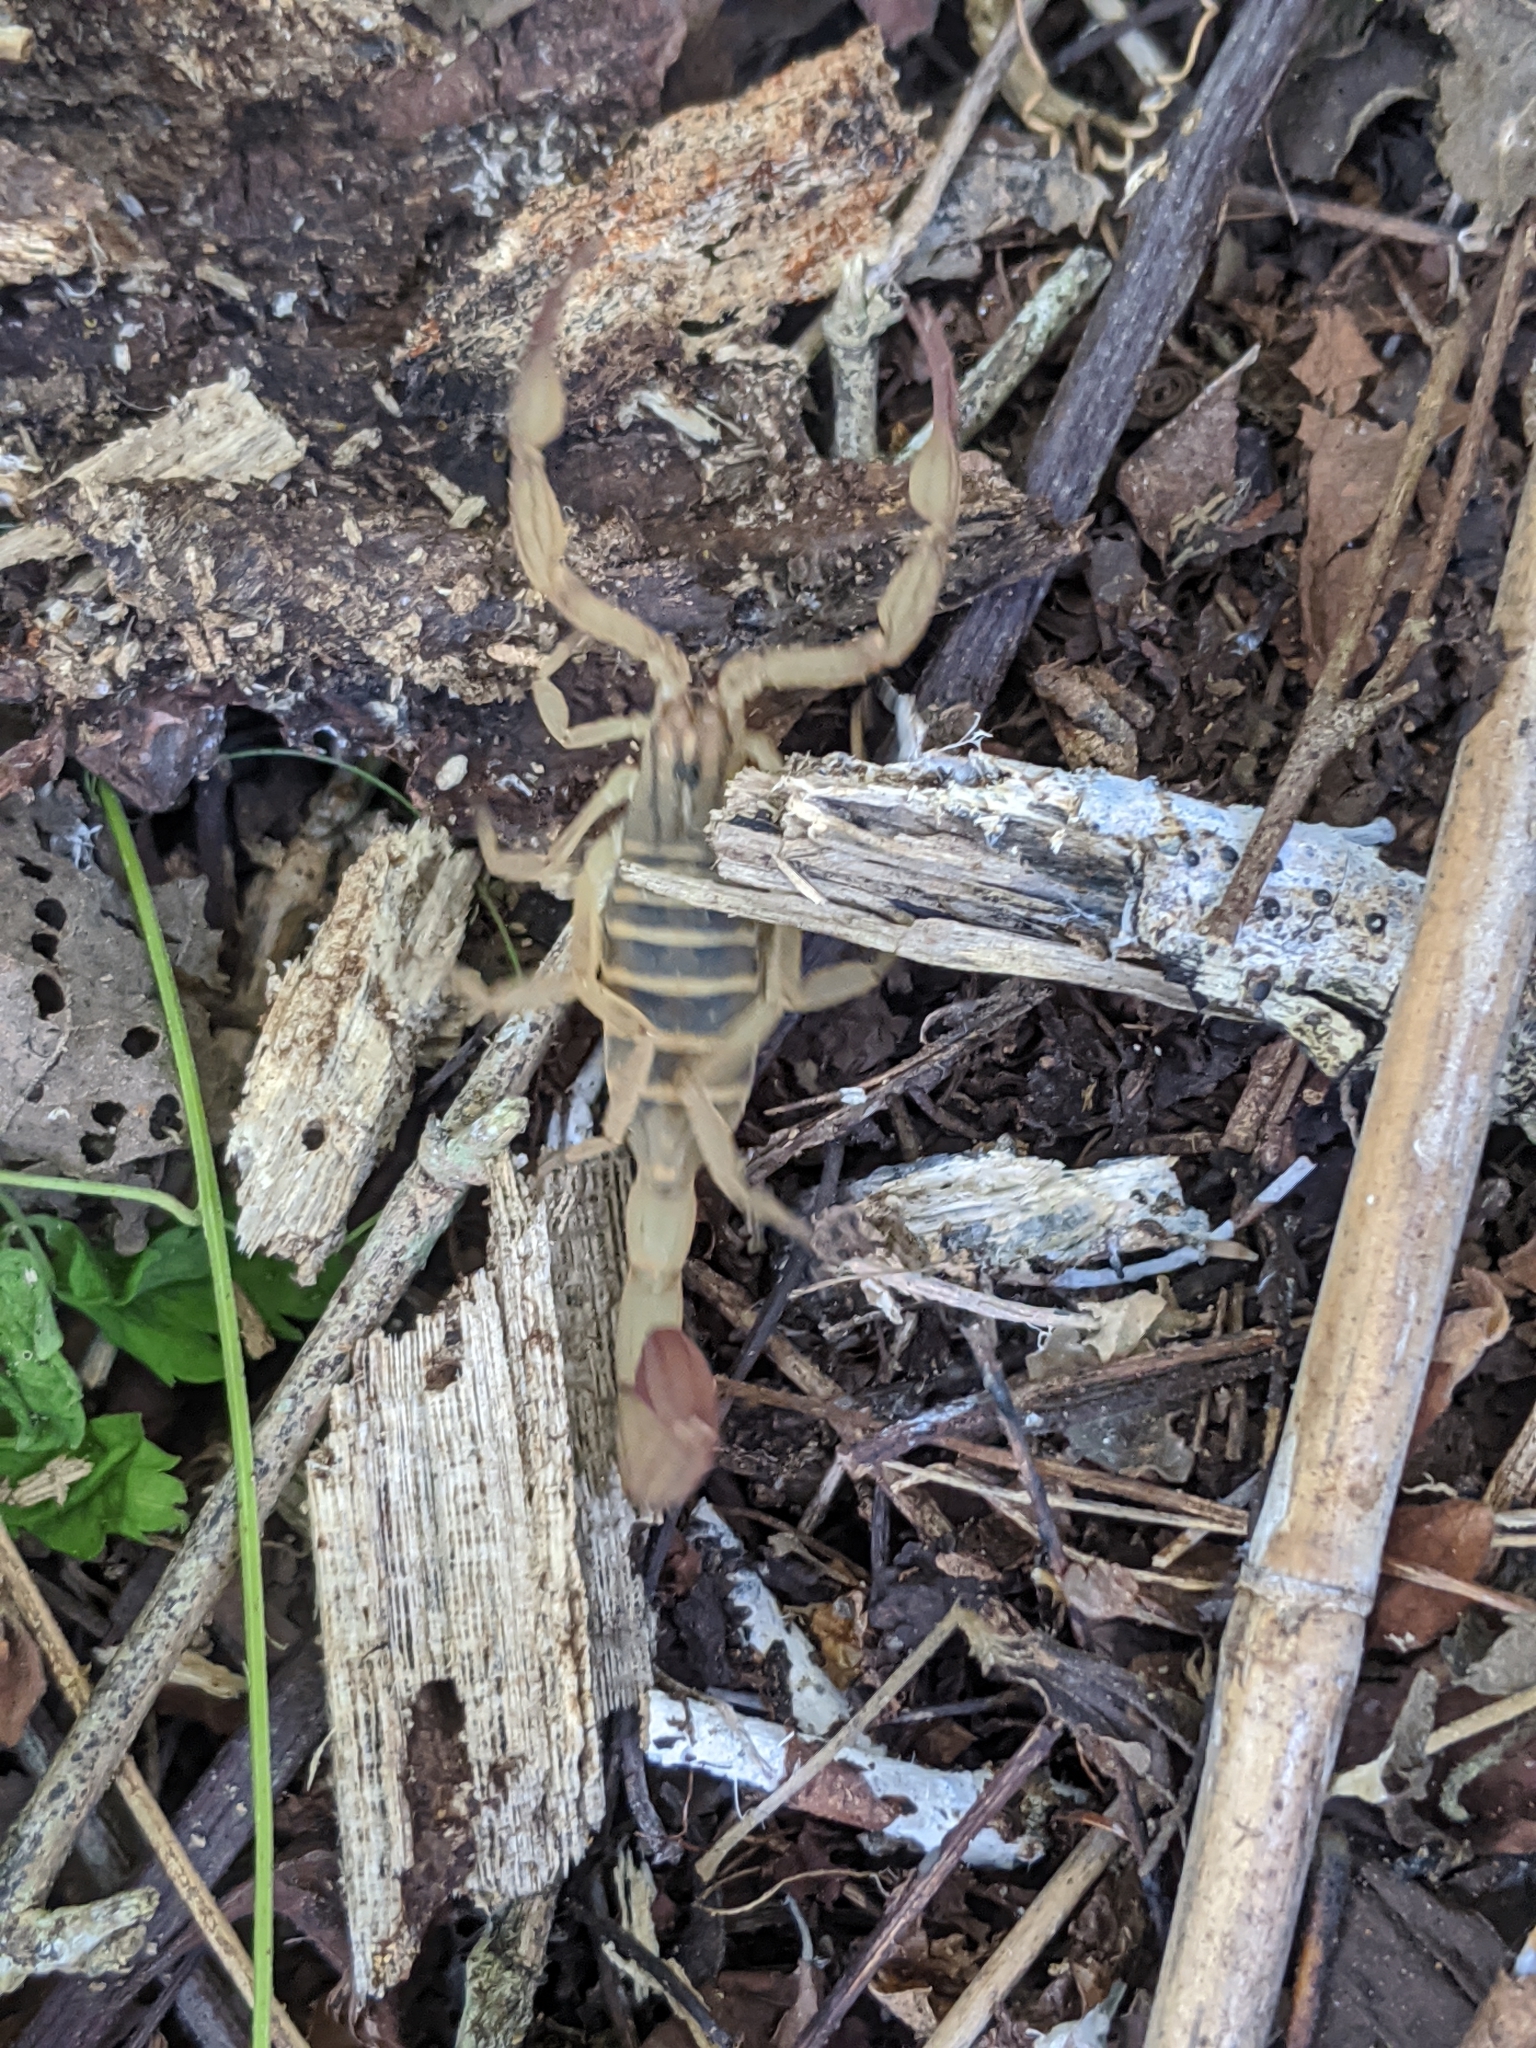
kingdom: Animalia
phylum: Arthropoda
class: Arachnida
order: Scorpiones
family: Buthidae
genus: Centruroides
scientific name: Centruroides elegans
